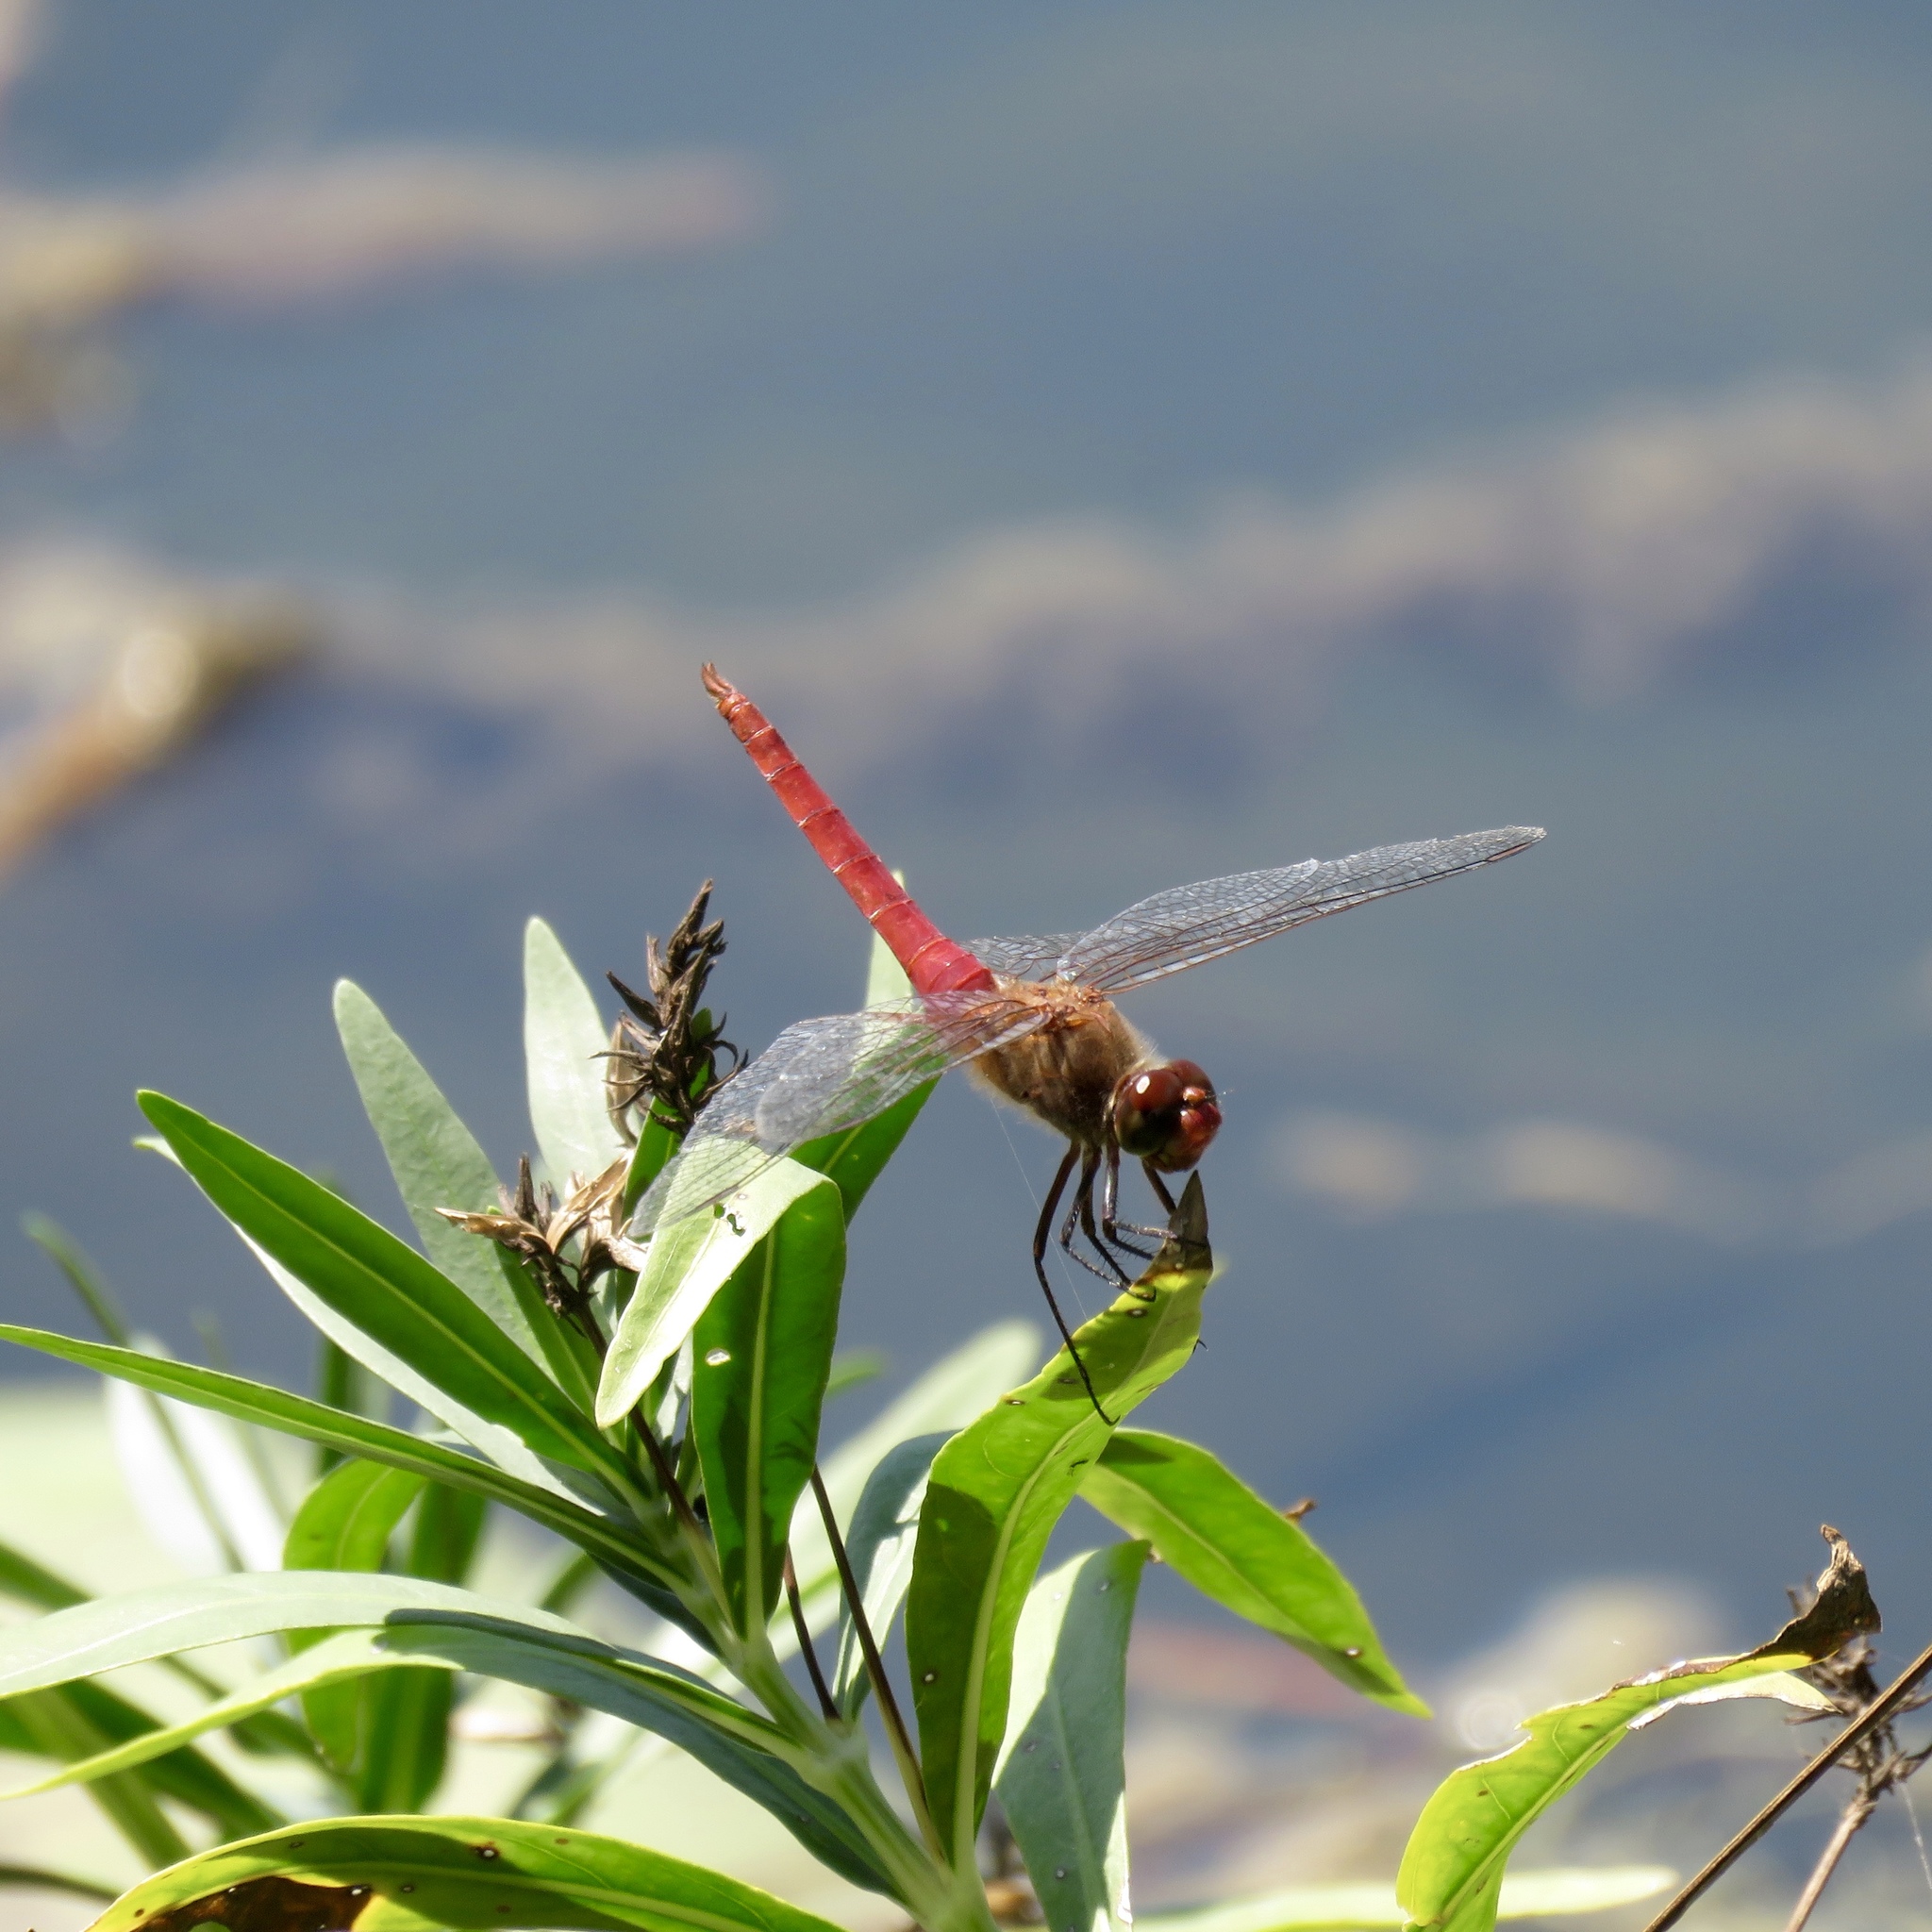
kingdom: Animalia
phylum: Arthropoda
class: Insecta
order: Odonata
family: Libellulidae
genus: Brachymesia
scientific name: Brachymesia furcata
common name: Red-taled pennant
